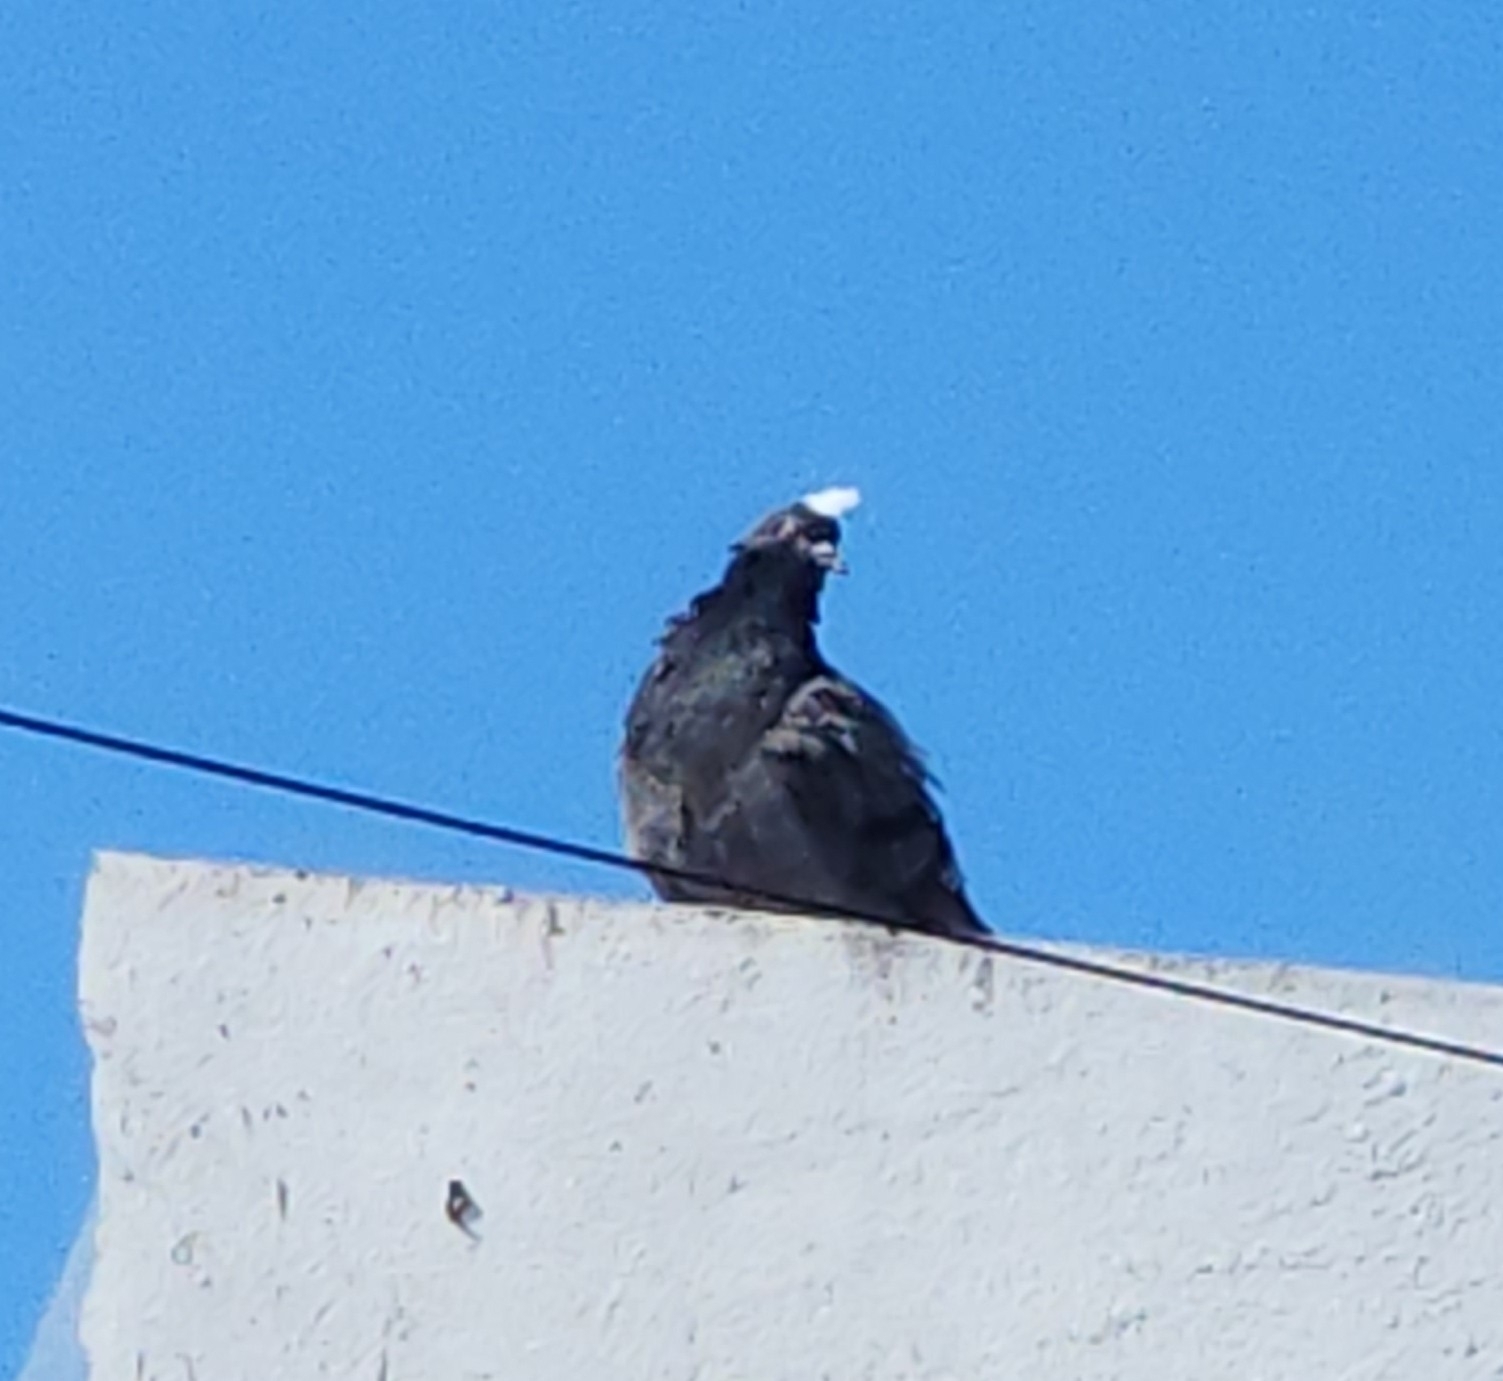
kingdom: Animalia
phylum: Chordata
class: Aves
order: Columbiformes
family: Columbidae
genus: Columba
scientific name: Columba livia
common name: Rock pigeon
